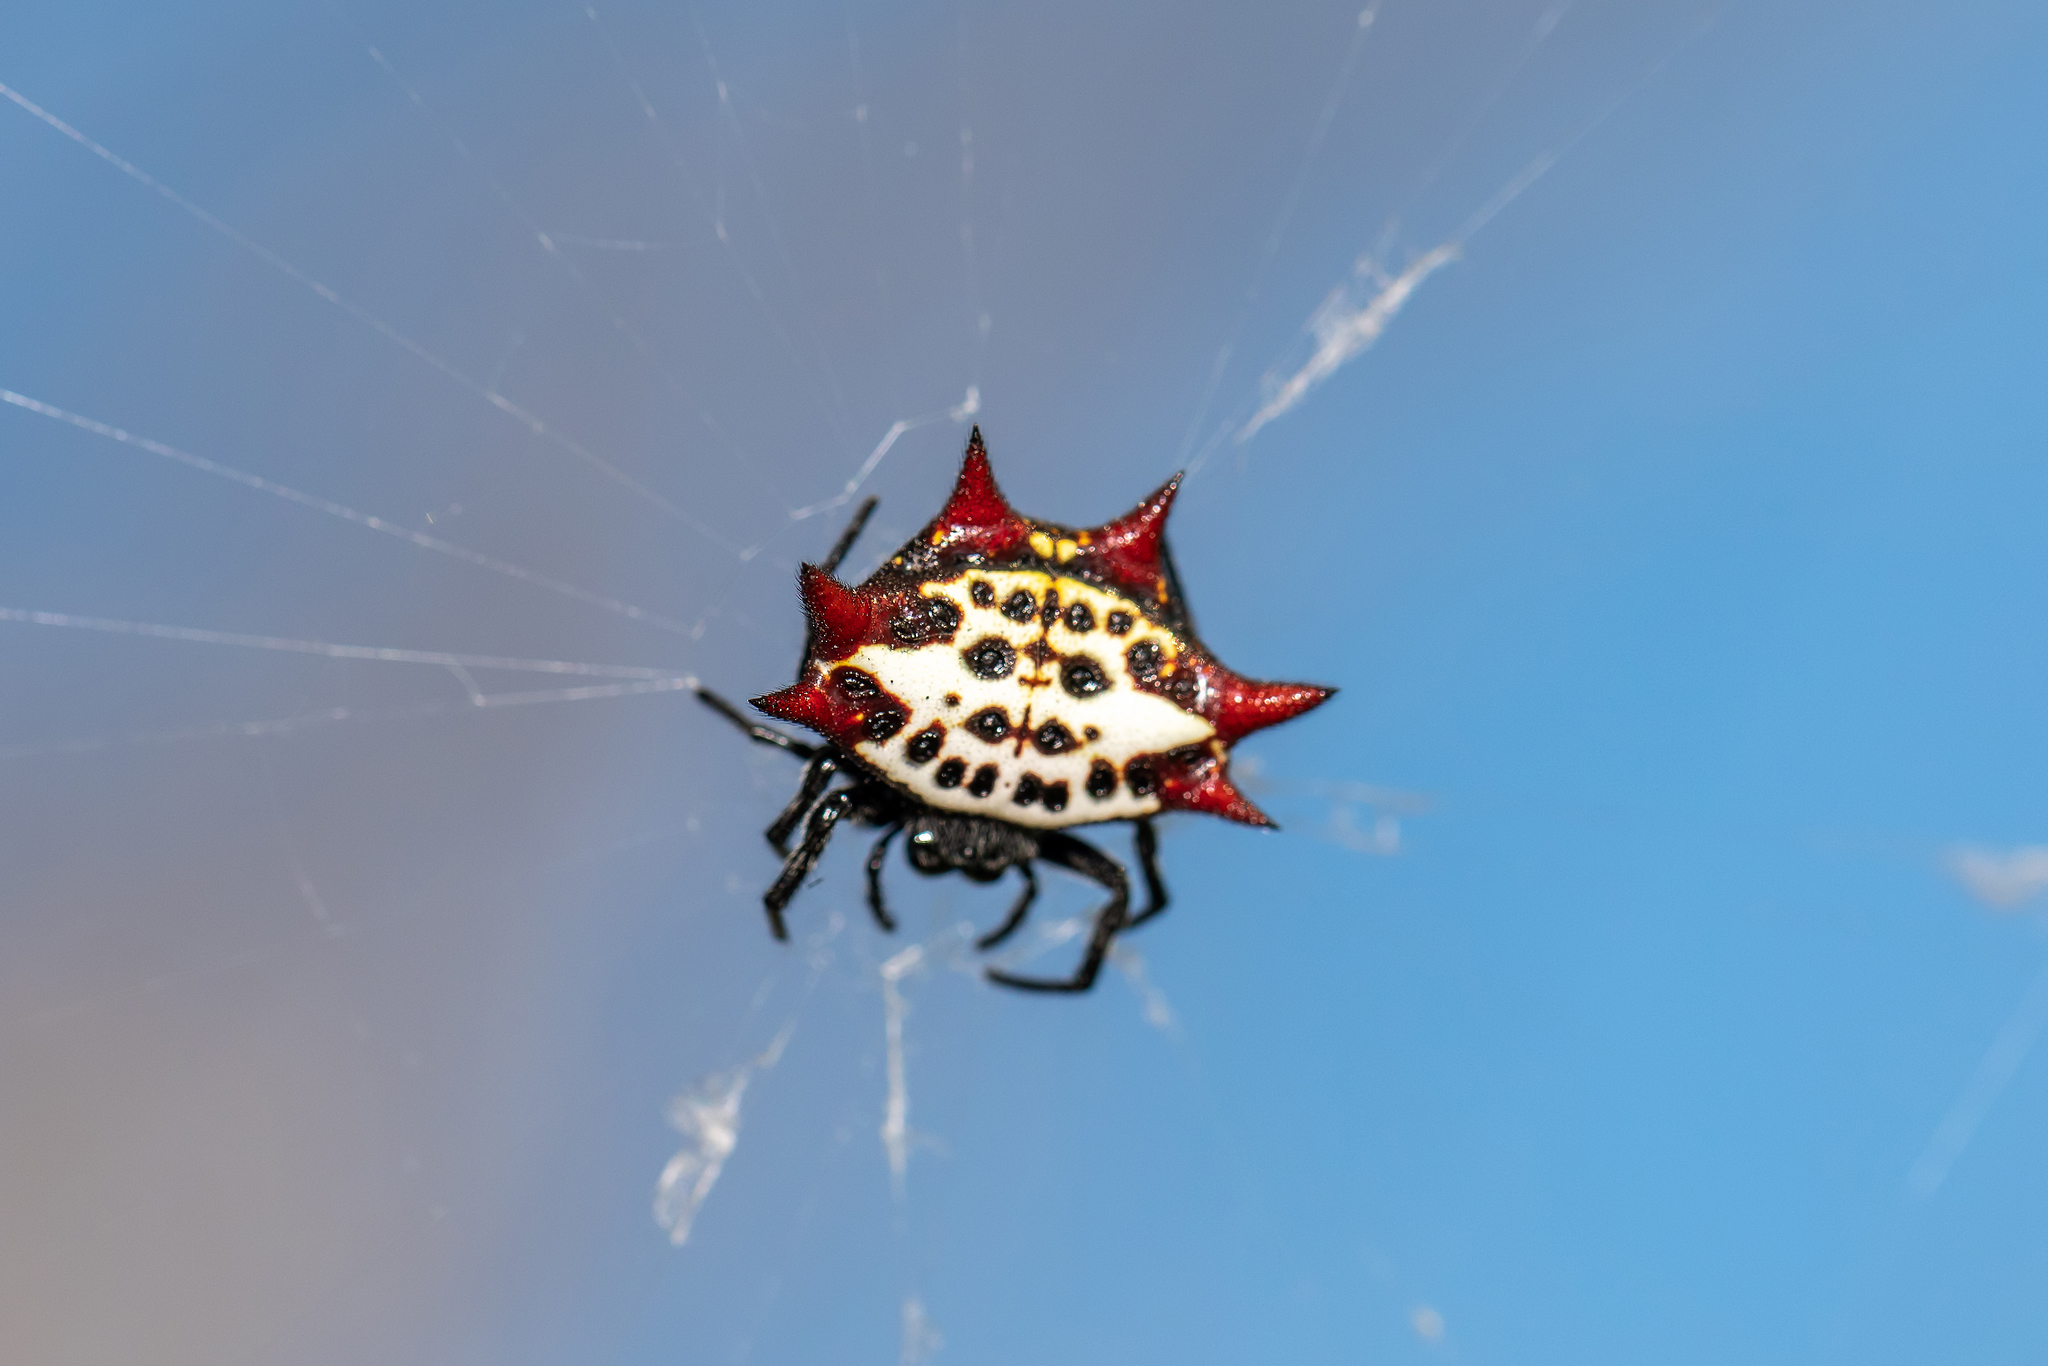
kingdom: Animalia
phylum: Arthropoda
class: Arachnida
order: Araneae
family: Araneidae
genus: Gasteracantha
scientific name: Gasteracantha cancriformis
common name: Orb weavers
